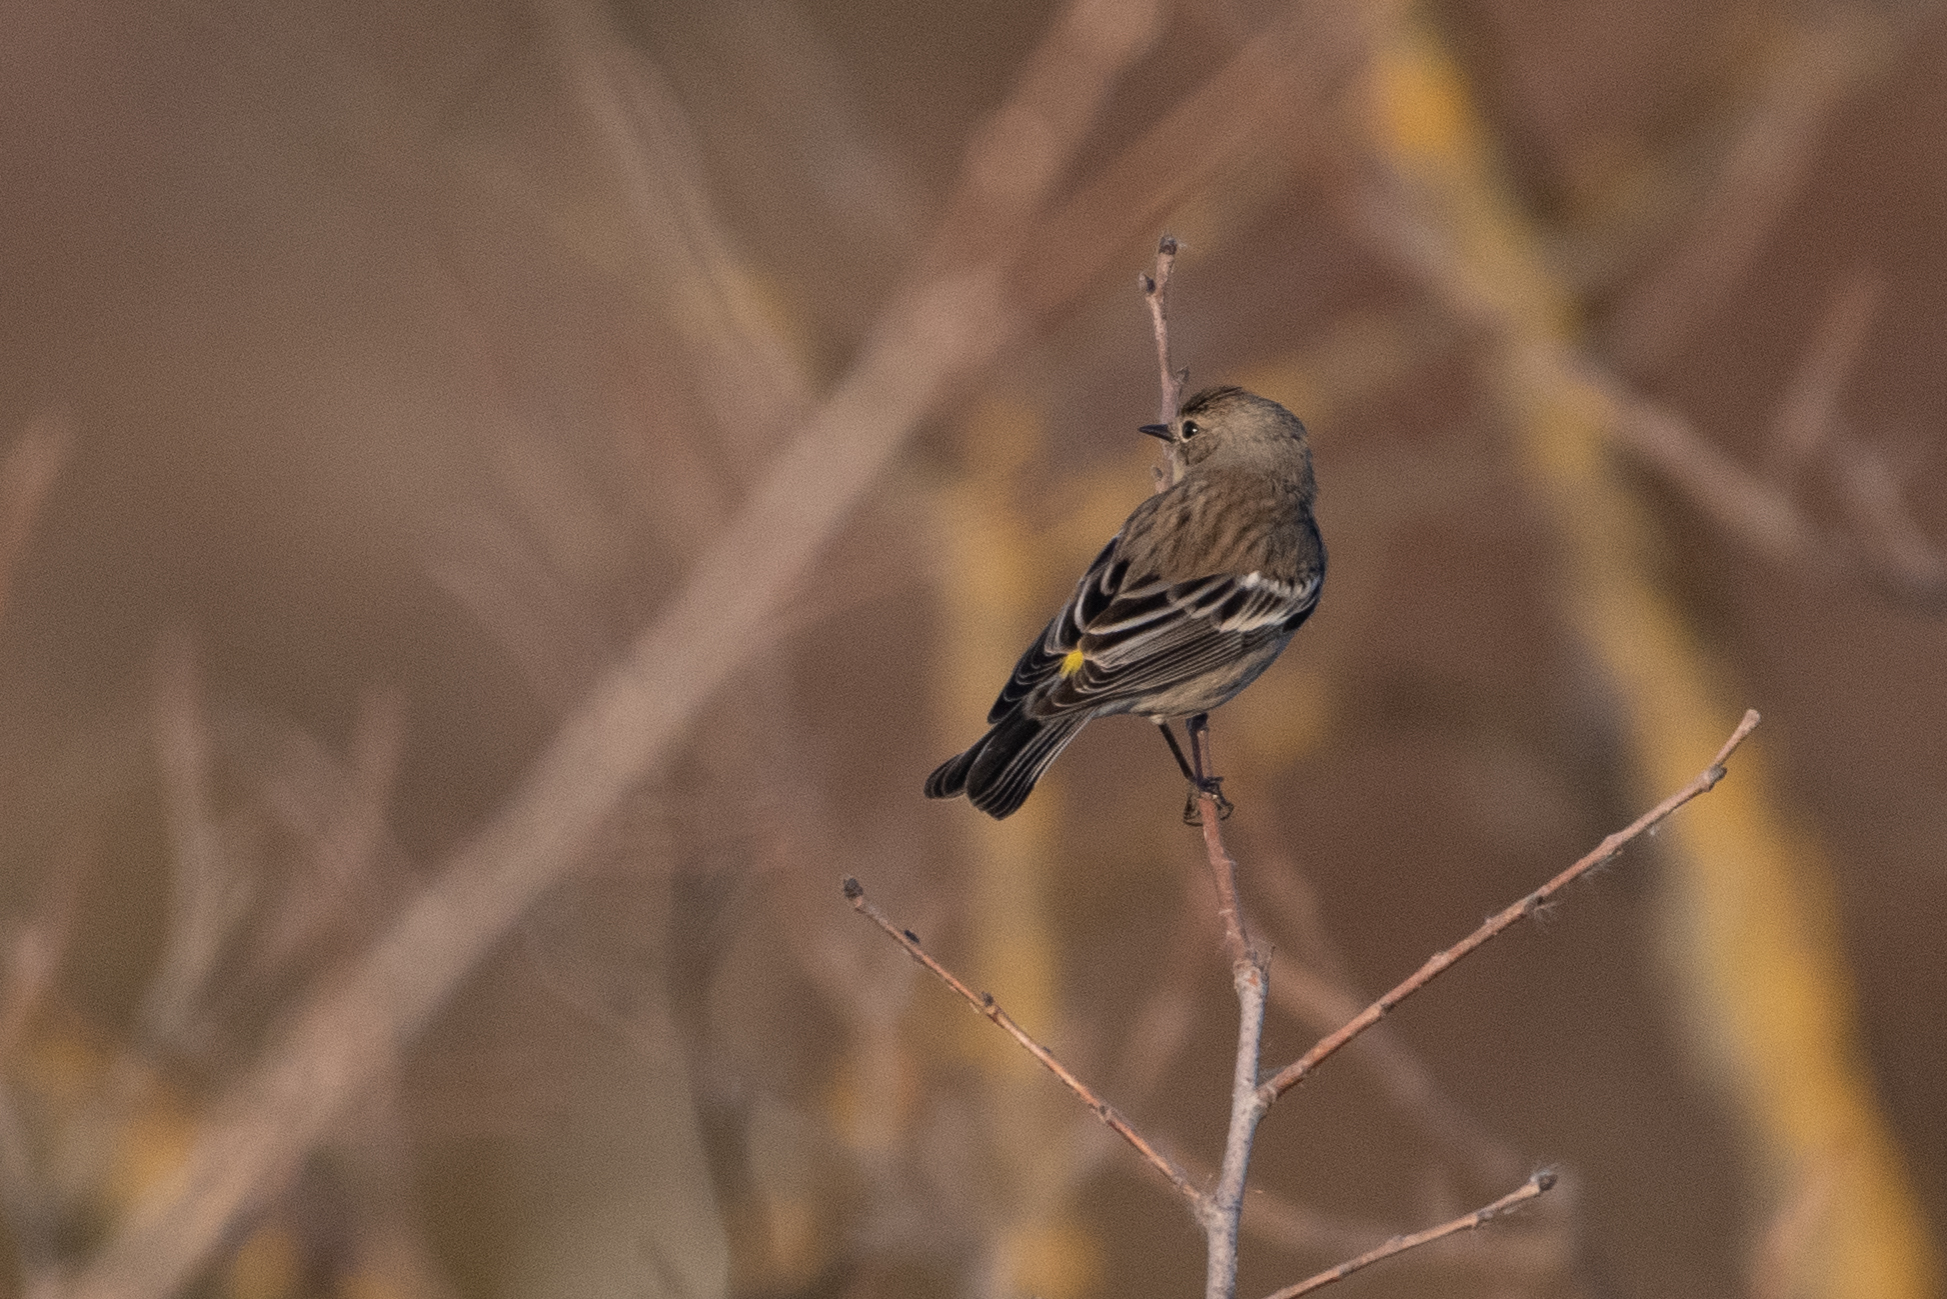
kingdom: Animalia
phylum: Chordata
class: Aves
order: Passeriformes
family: Parulidae
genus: Setophaga
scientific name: Setophaga coronata
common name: Myrtle warbler
